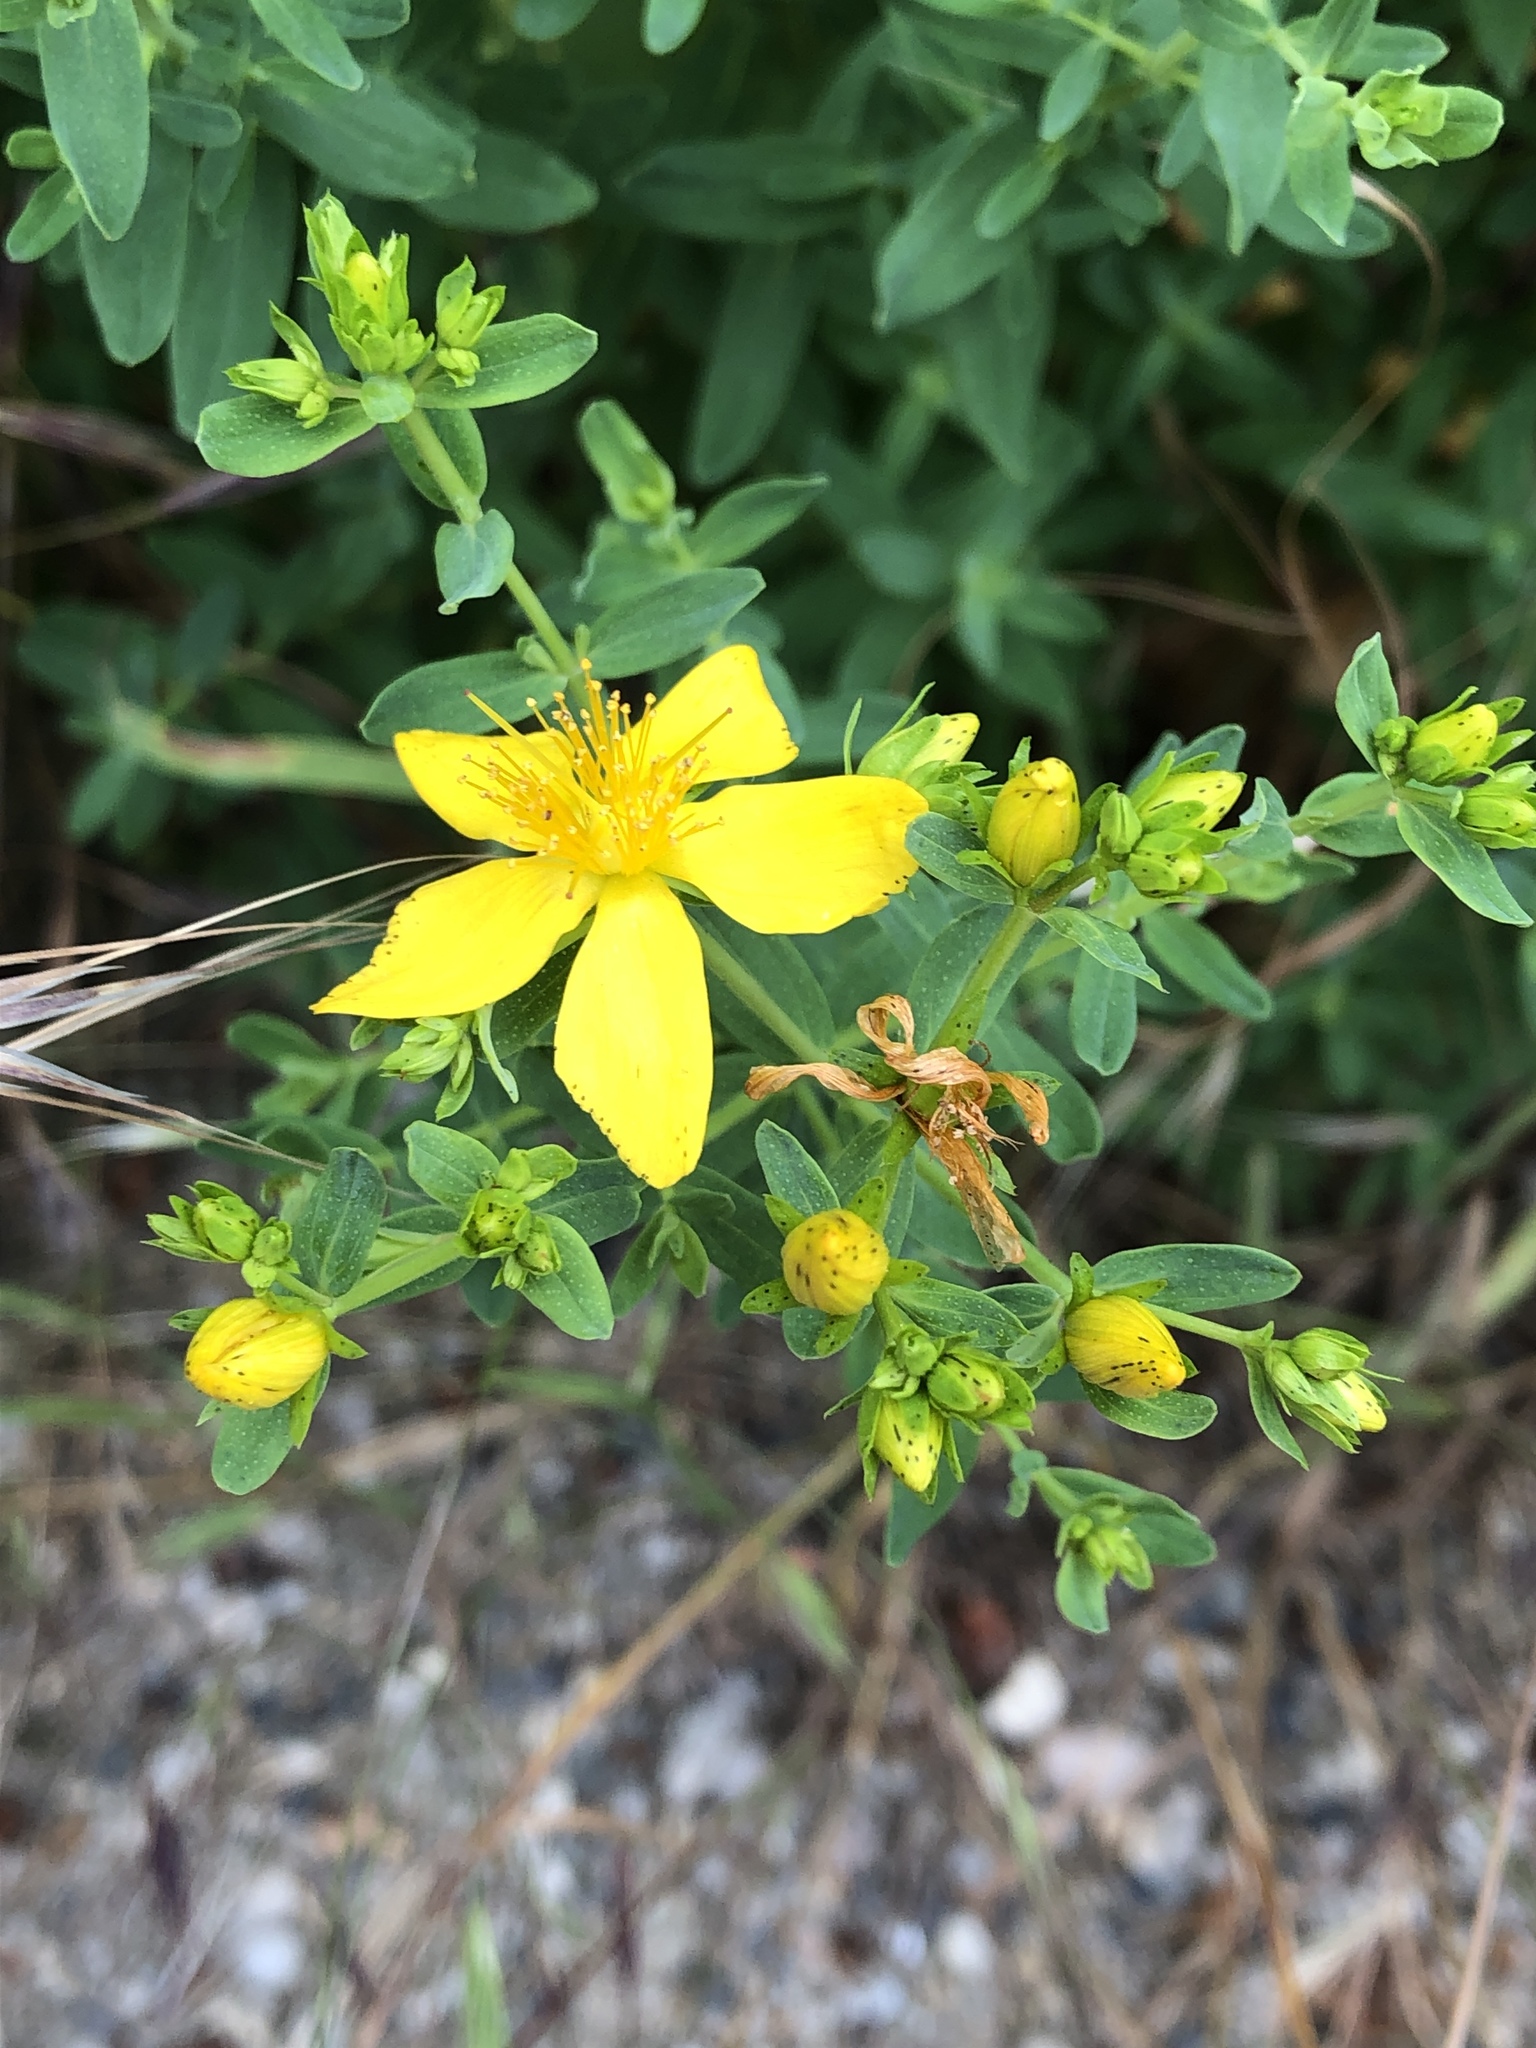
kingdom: Plantae
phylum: Tracheophyta
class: Magnoliopsida
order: Malpighiales
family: Hypericaceae
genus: Hypericum
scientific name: Hypericum perforatum
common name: Common st. johnswort
